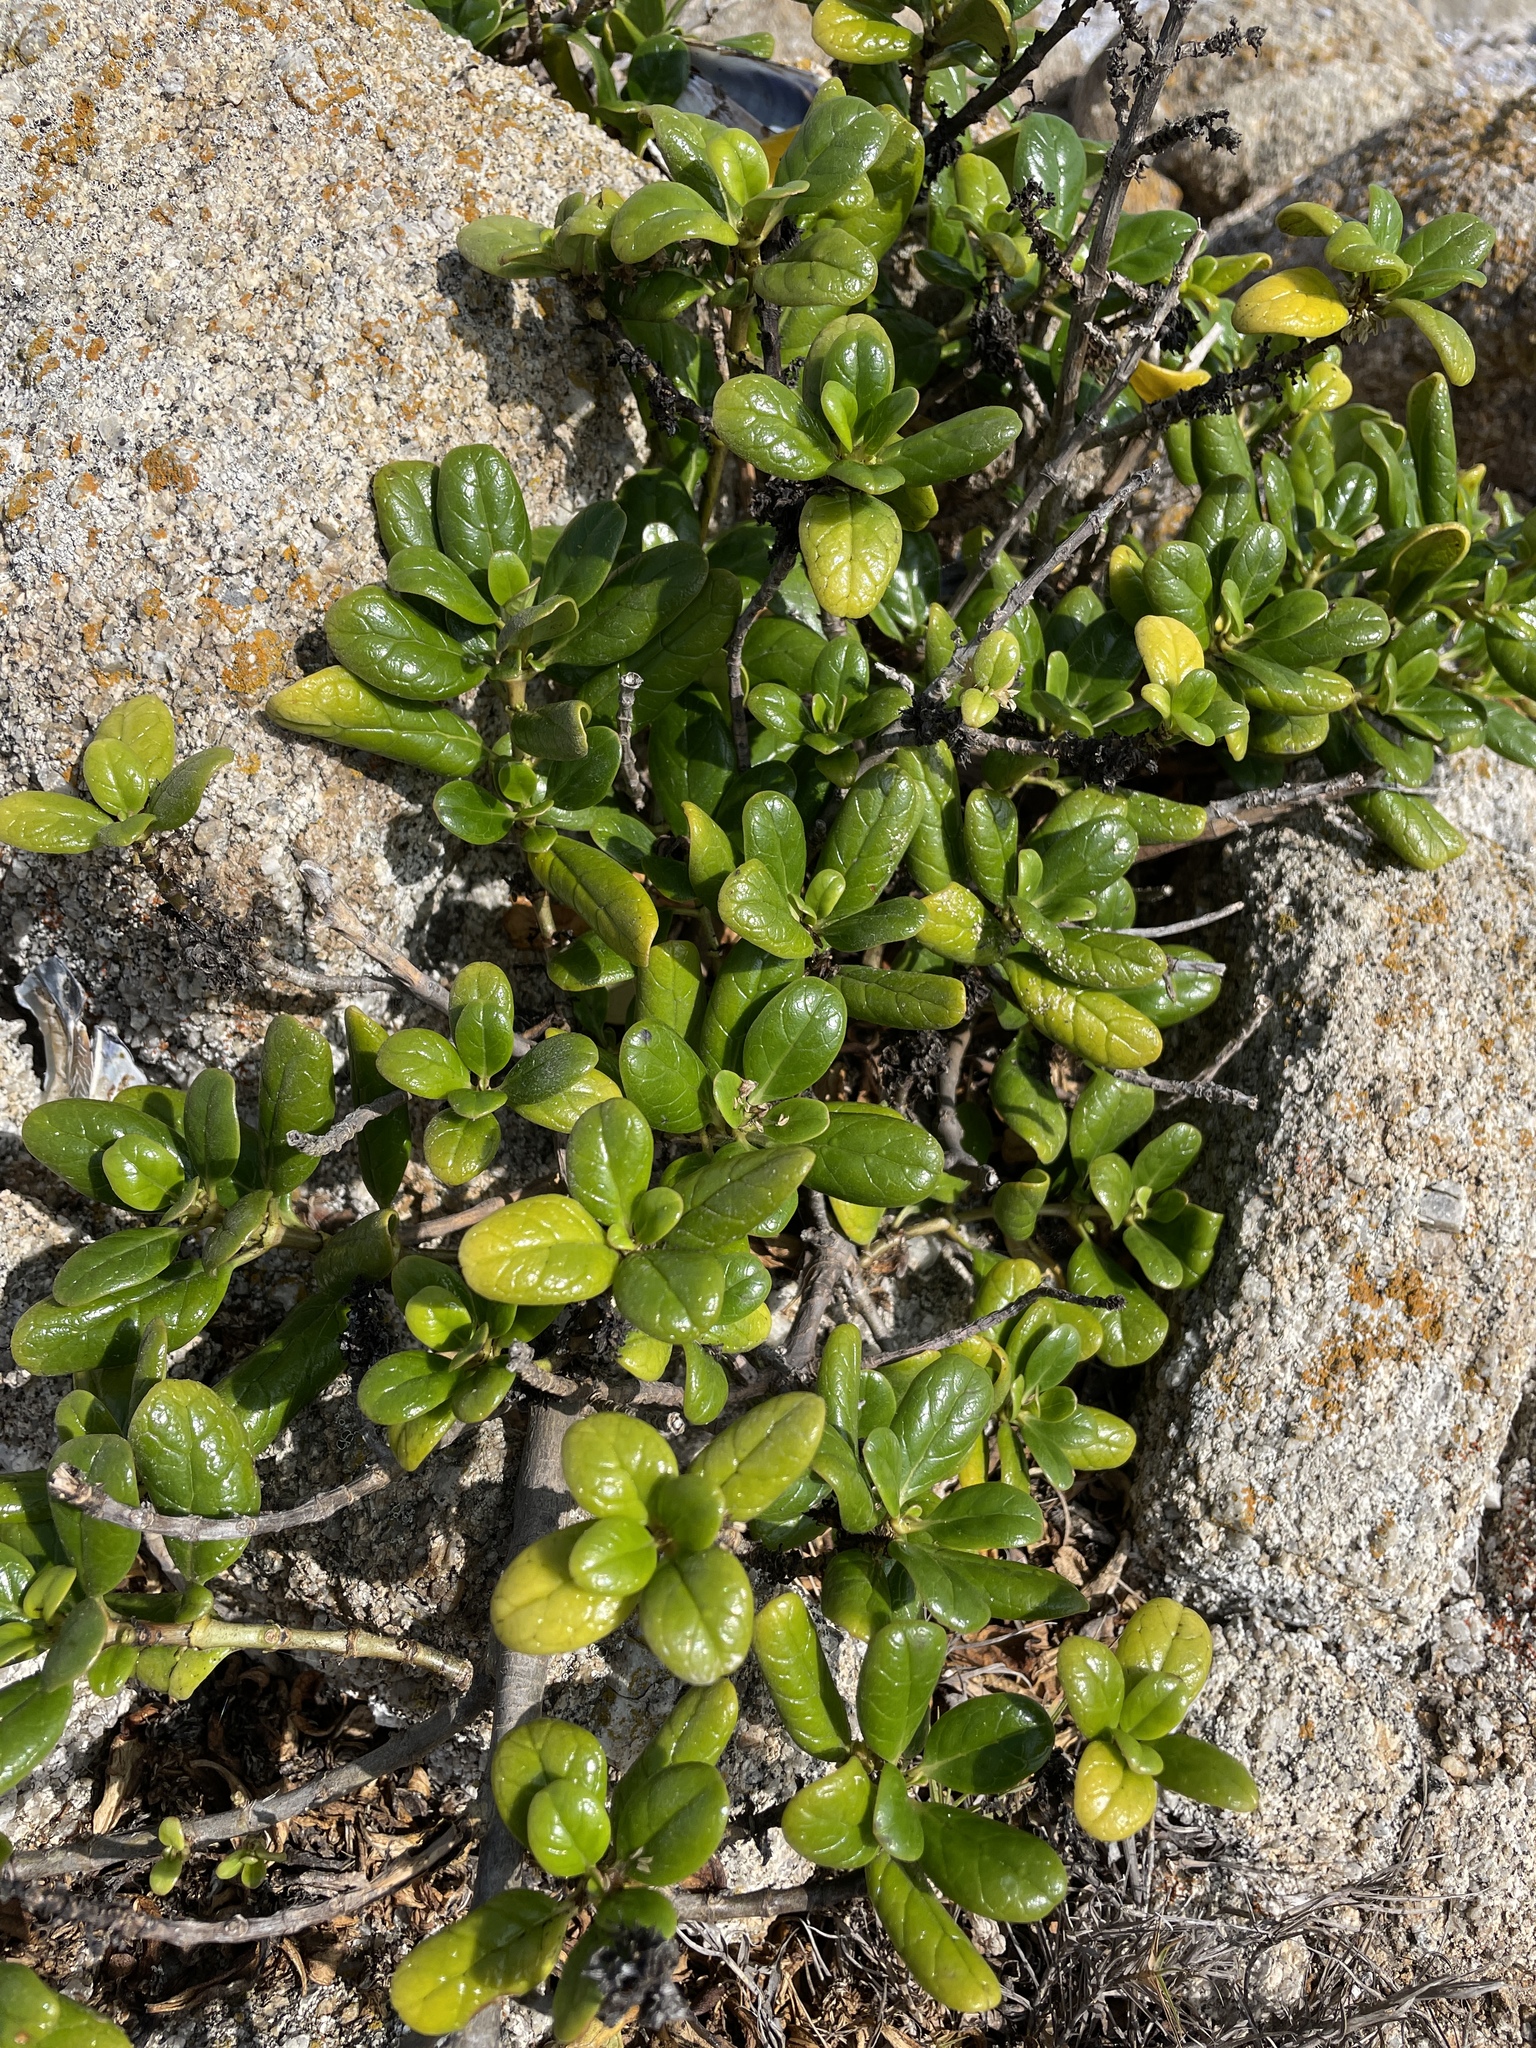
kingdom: Plantae
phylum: Tracheophyta
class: Magnoliopsida
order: Gentianales
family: Rubiaceae
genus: Coprosma
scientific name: Coprosma repens
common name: Tree bedstraw
